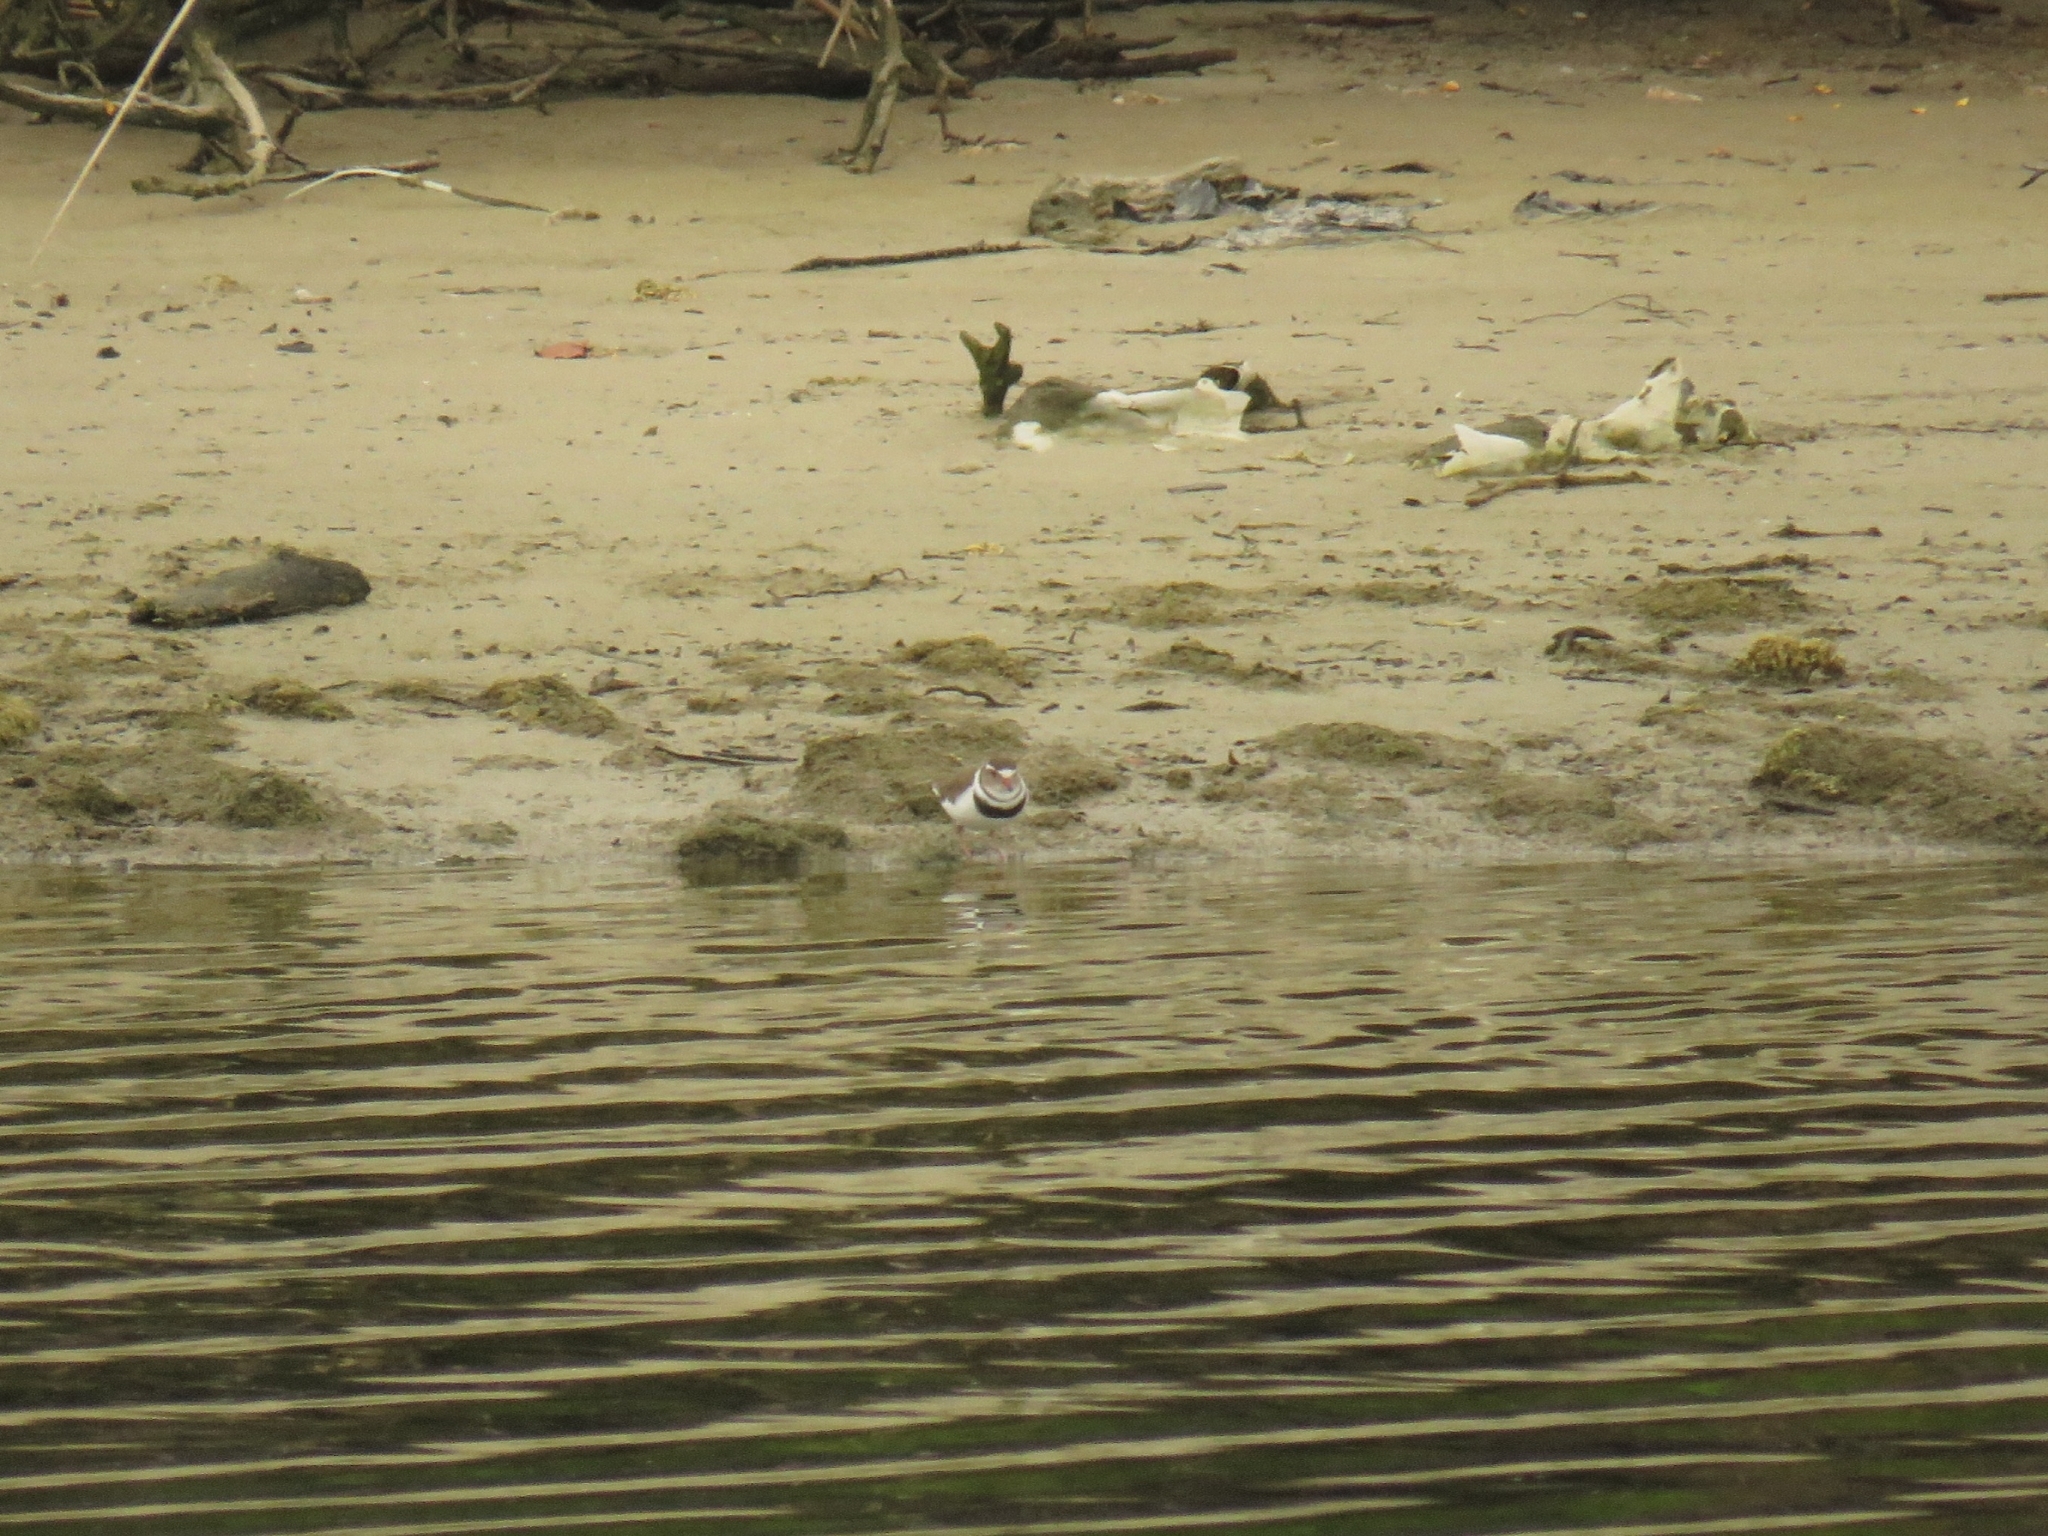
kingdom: Animalia
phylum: Chordata
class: Aves
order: Charadriiformes
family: Charadriidae
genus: Charadrius
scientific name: Charadrius tricollaris
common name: Three-banded plover
